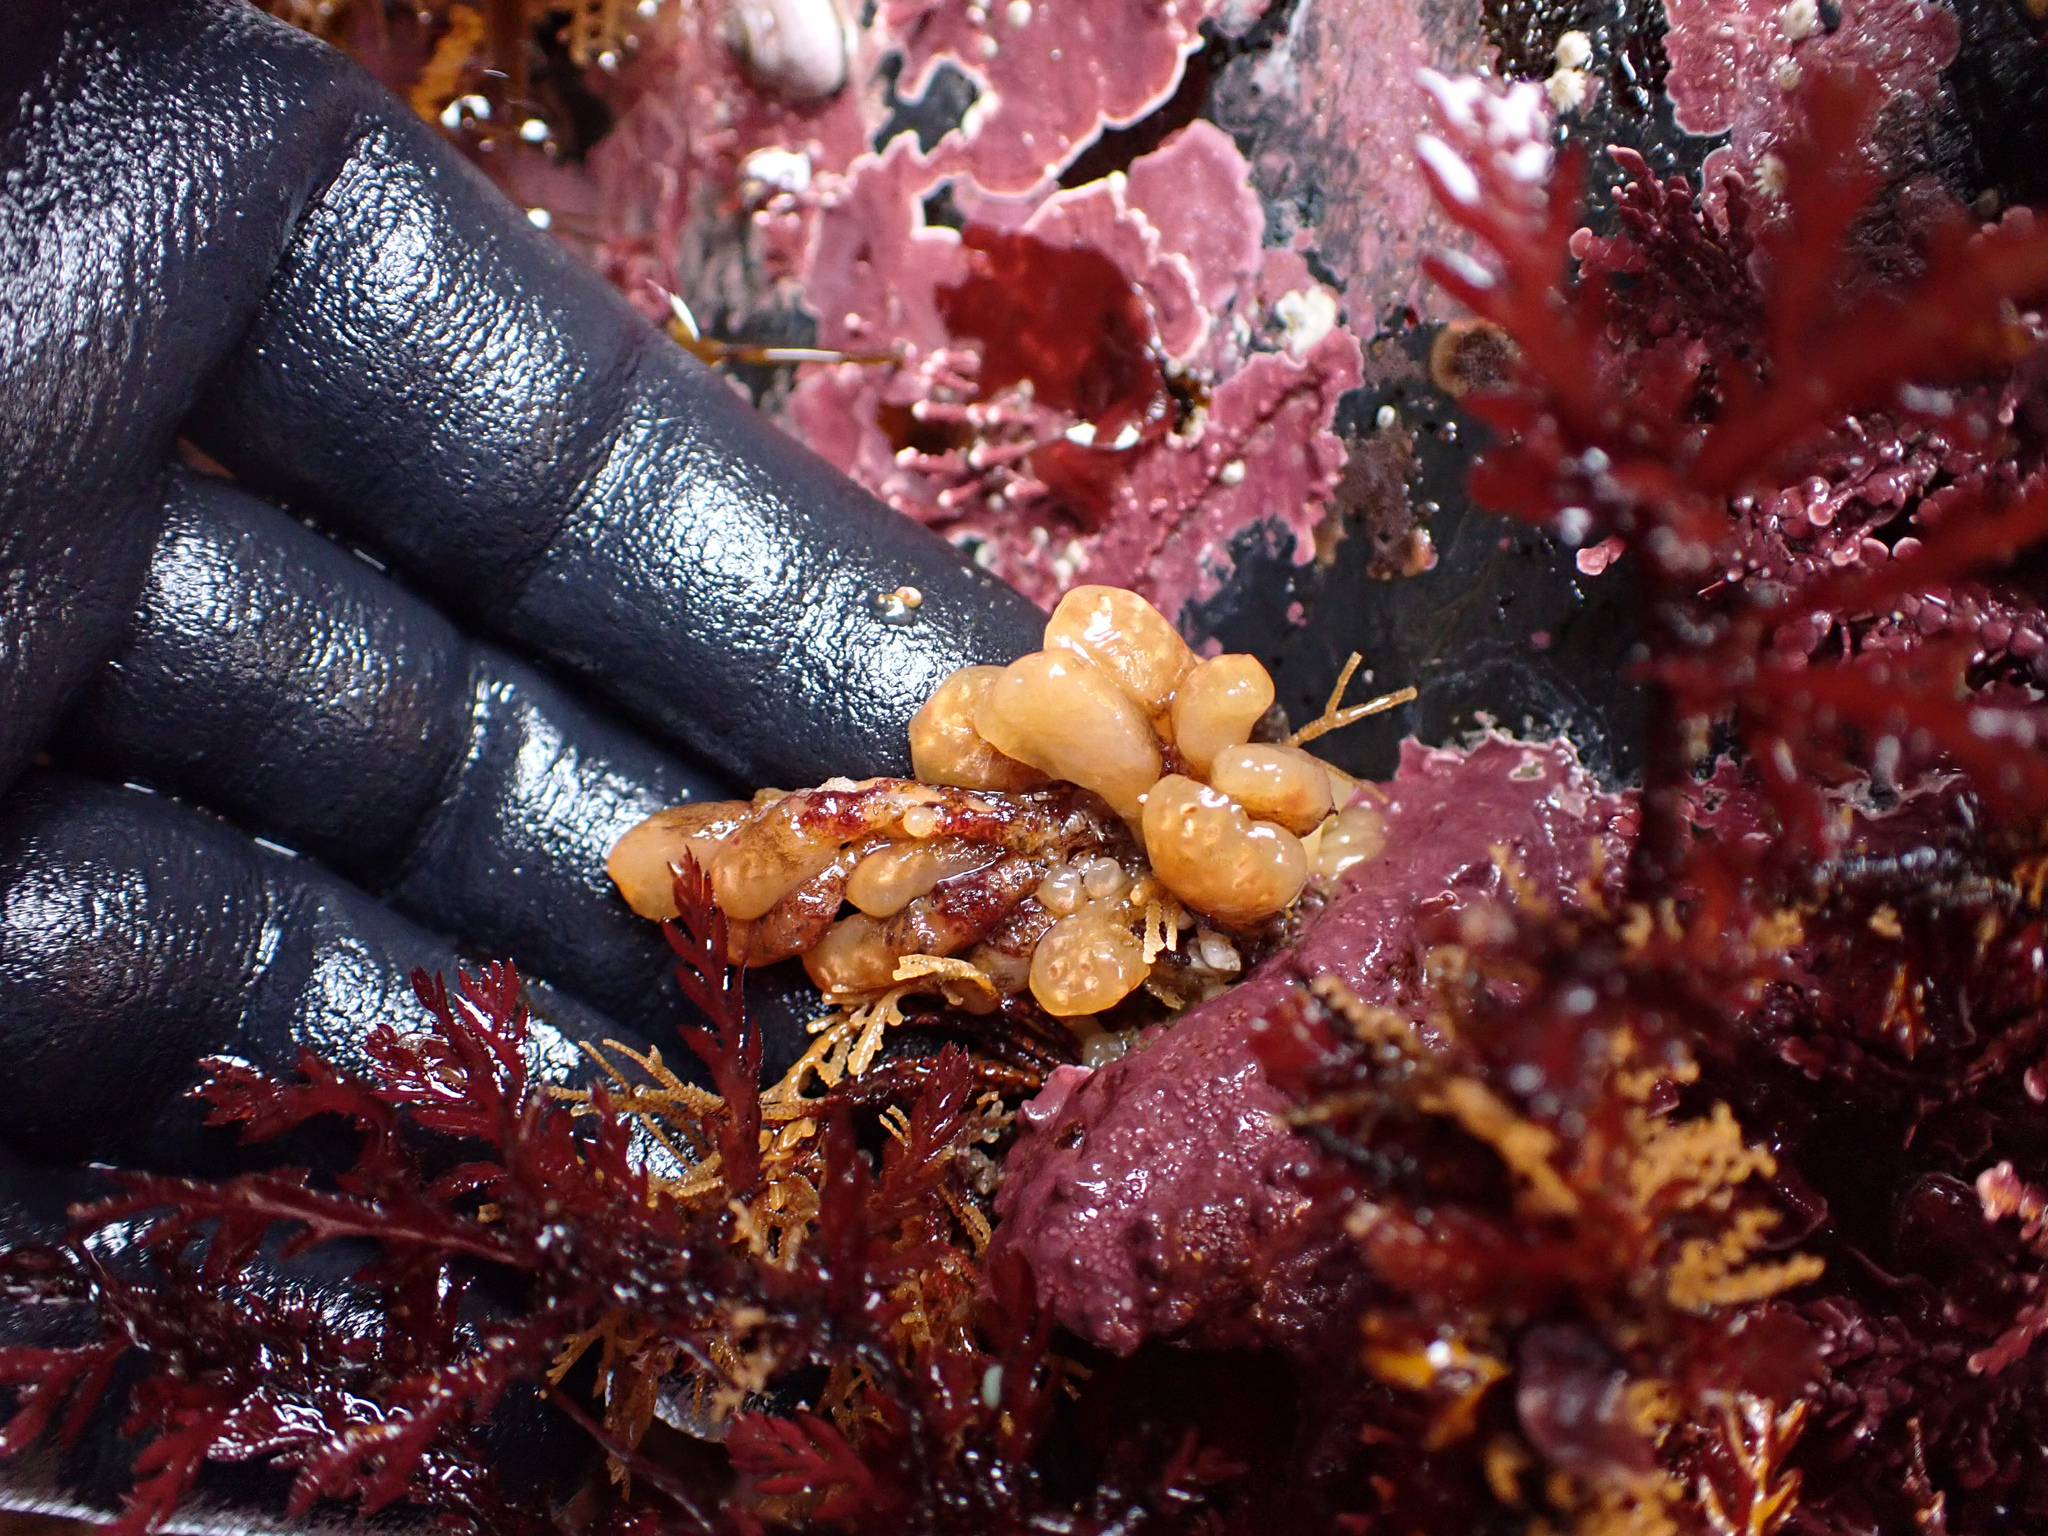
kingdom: Animalia
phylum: Chordata
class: Ascidiacea
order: Aplousobranchia
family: Holozoidae
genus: Distaplia
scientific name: Distaplia smithi
